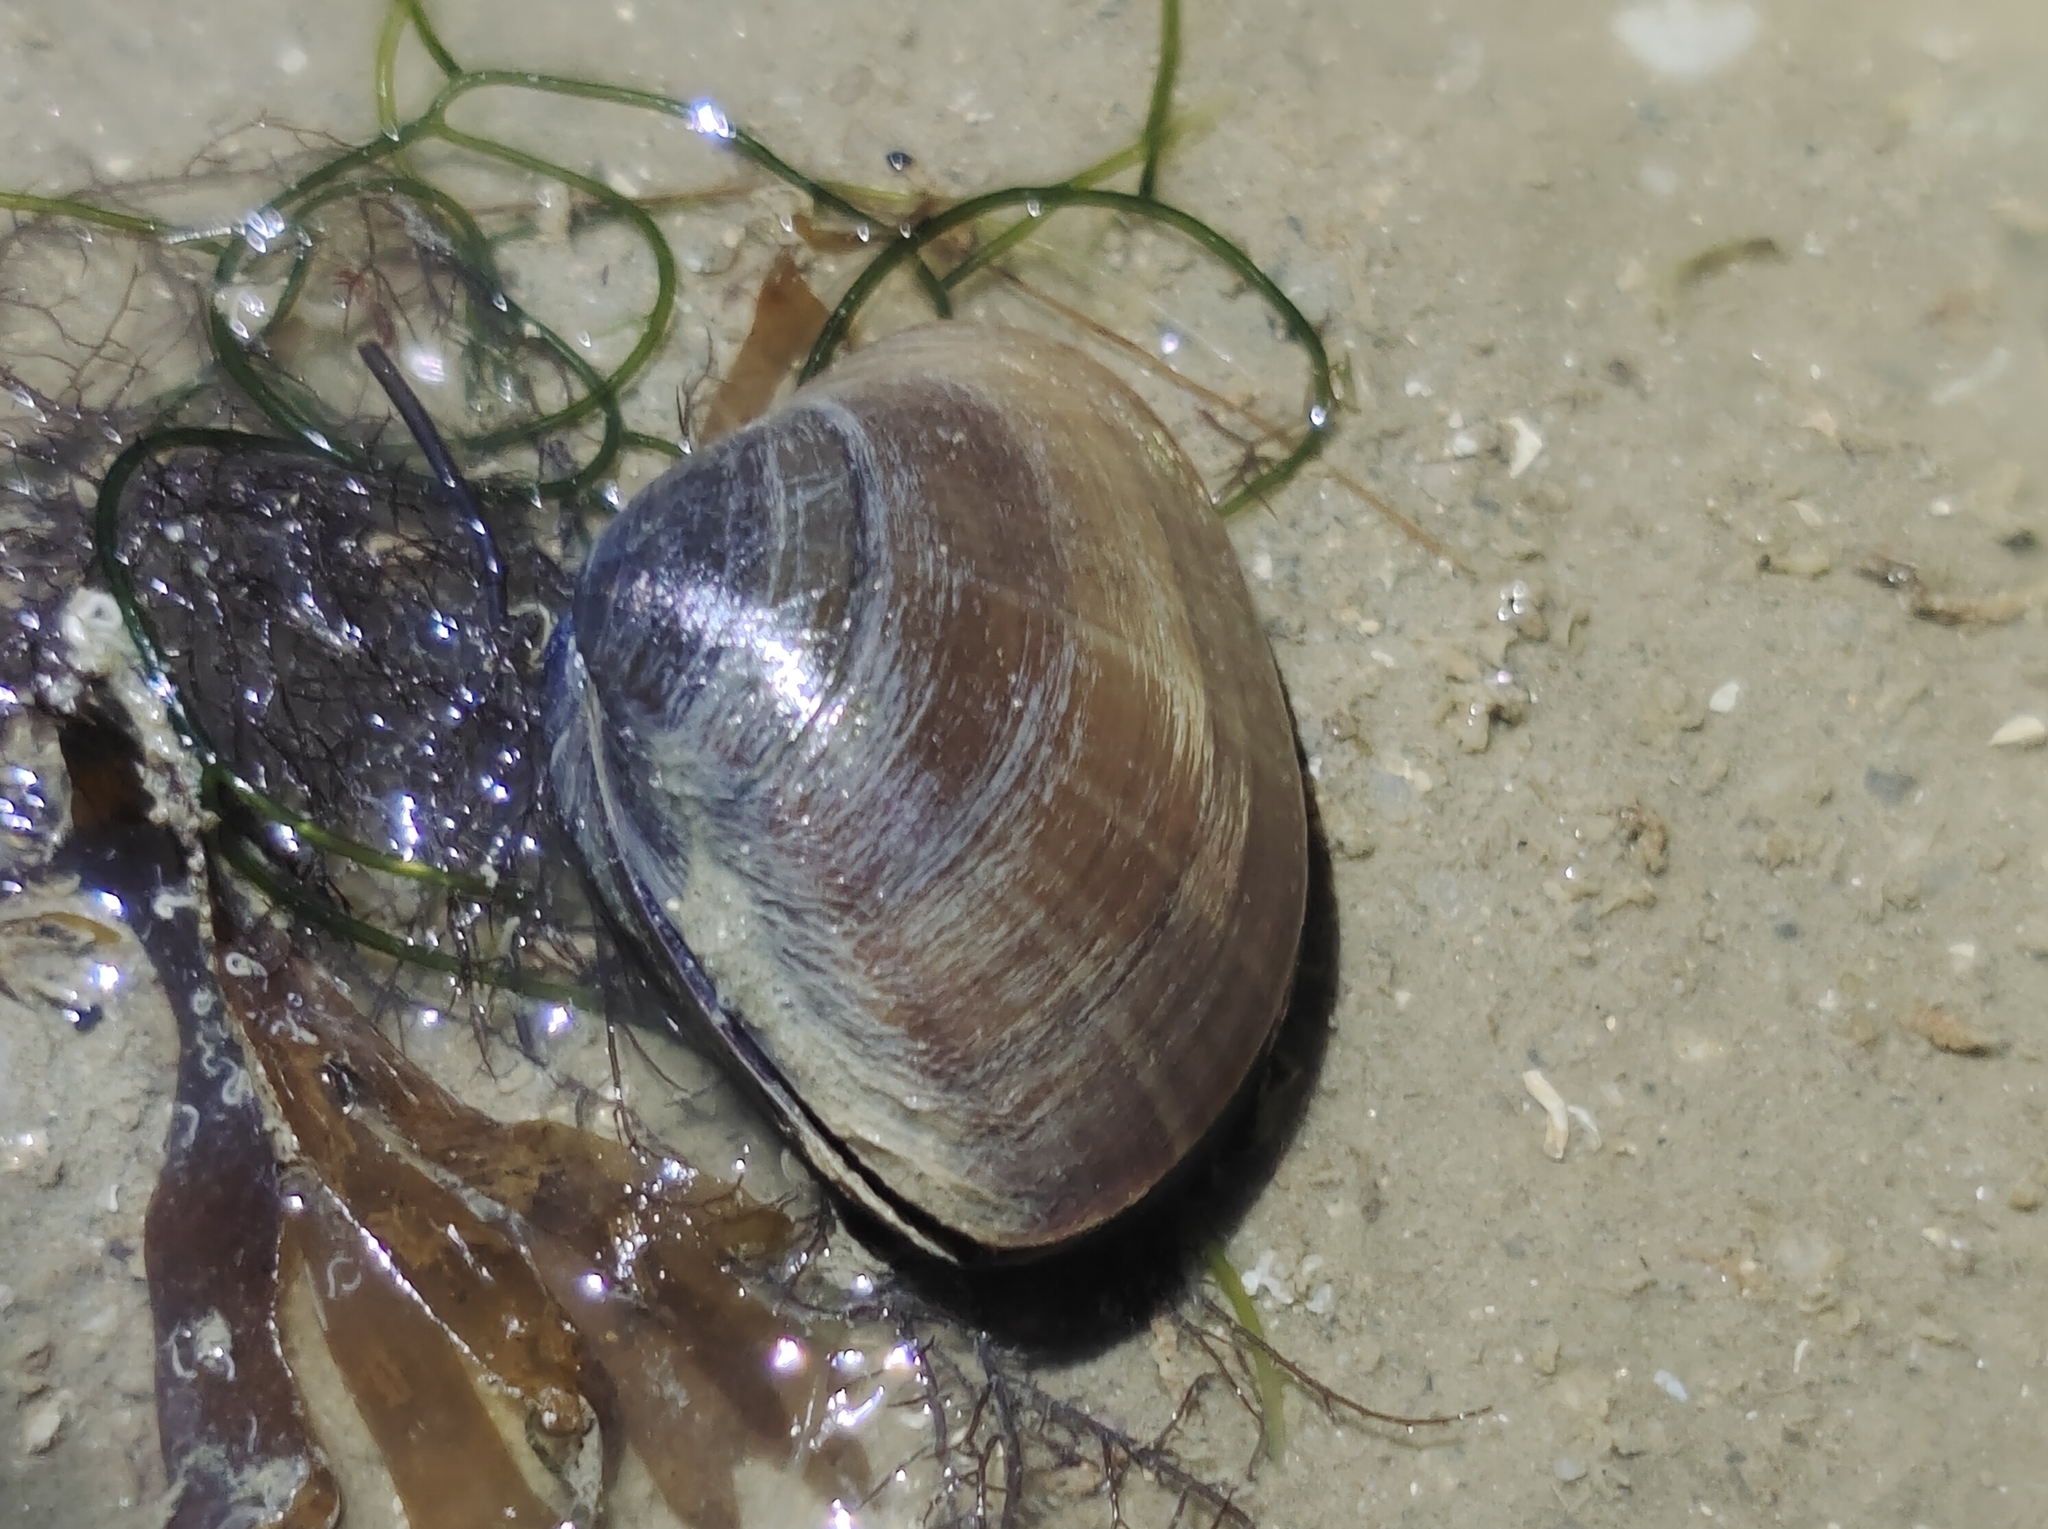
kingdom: Animalia
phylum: Mollusca
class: Bivalvia
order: Venerida
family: Mactridae
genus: Mactra
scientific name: Mactra grandis
